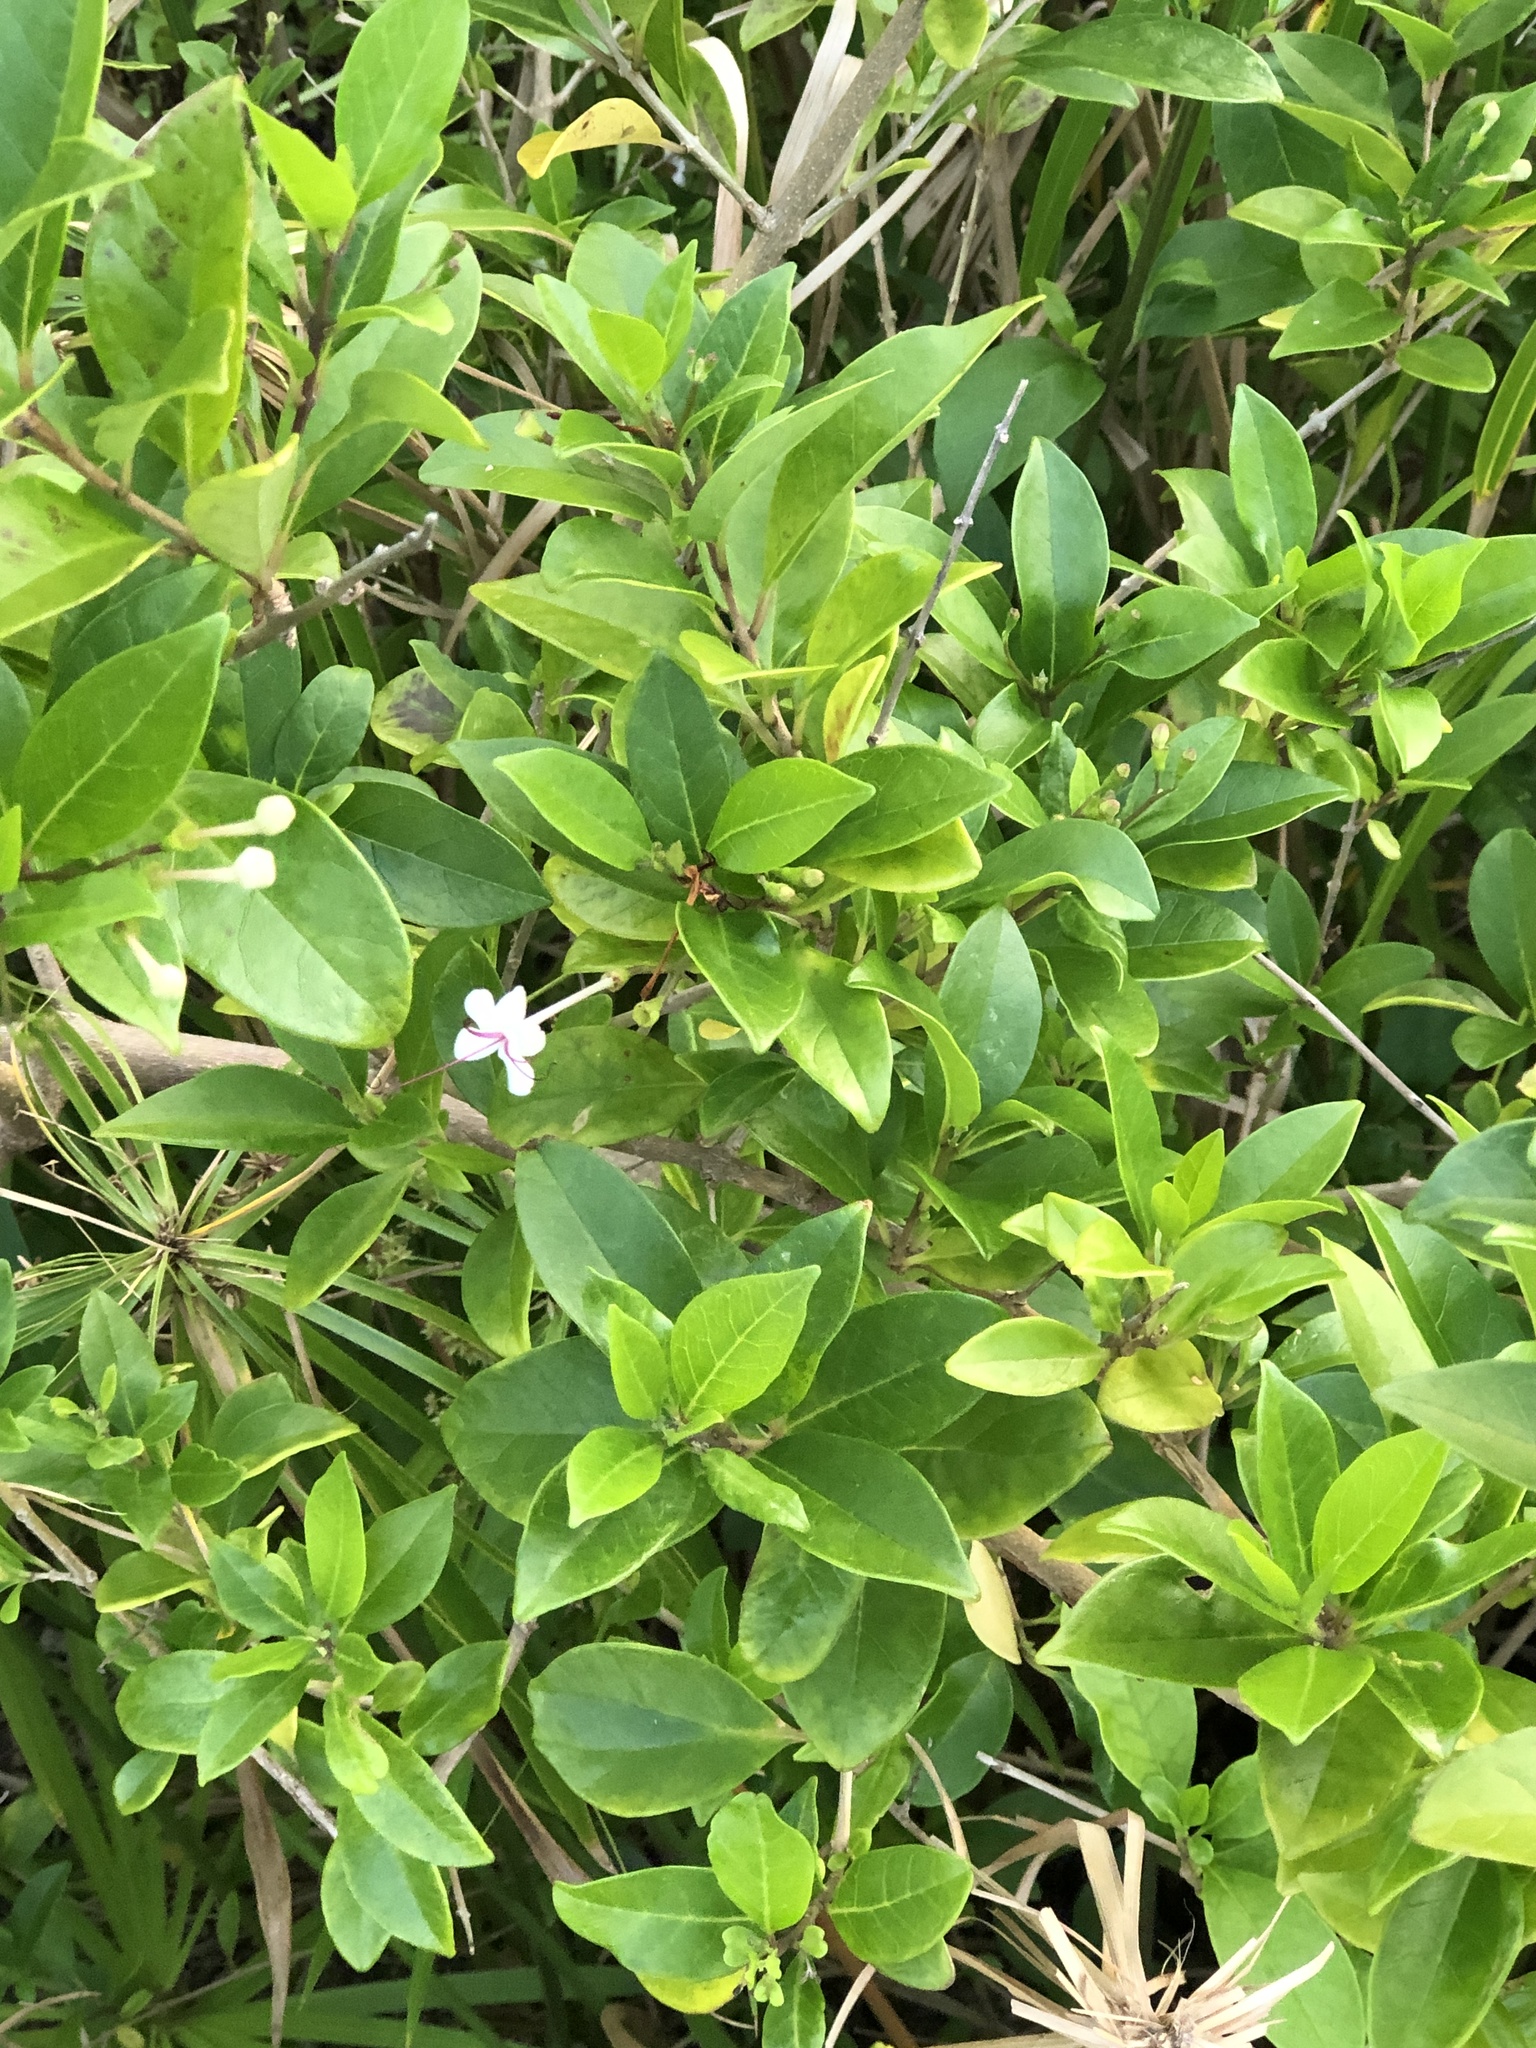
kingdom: Plantae
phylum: Tracheophyta
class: Magnoliopsida
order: Lamiales
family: Lamiaceae
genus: Volkameria
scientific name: Volkameria inermis
